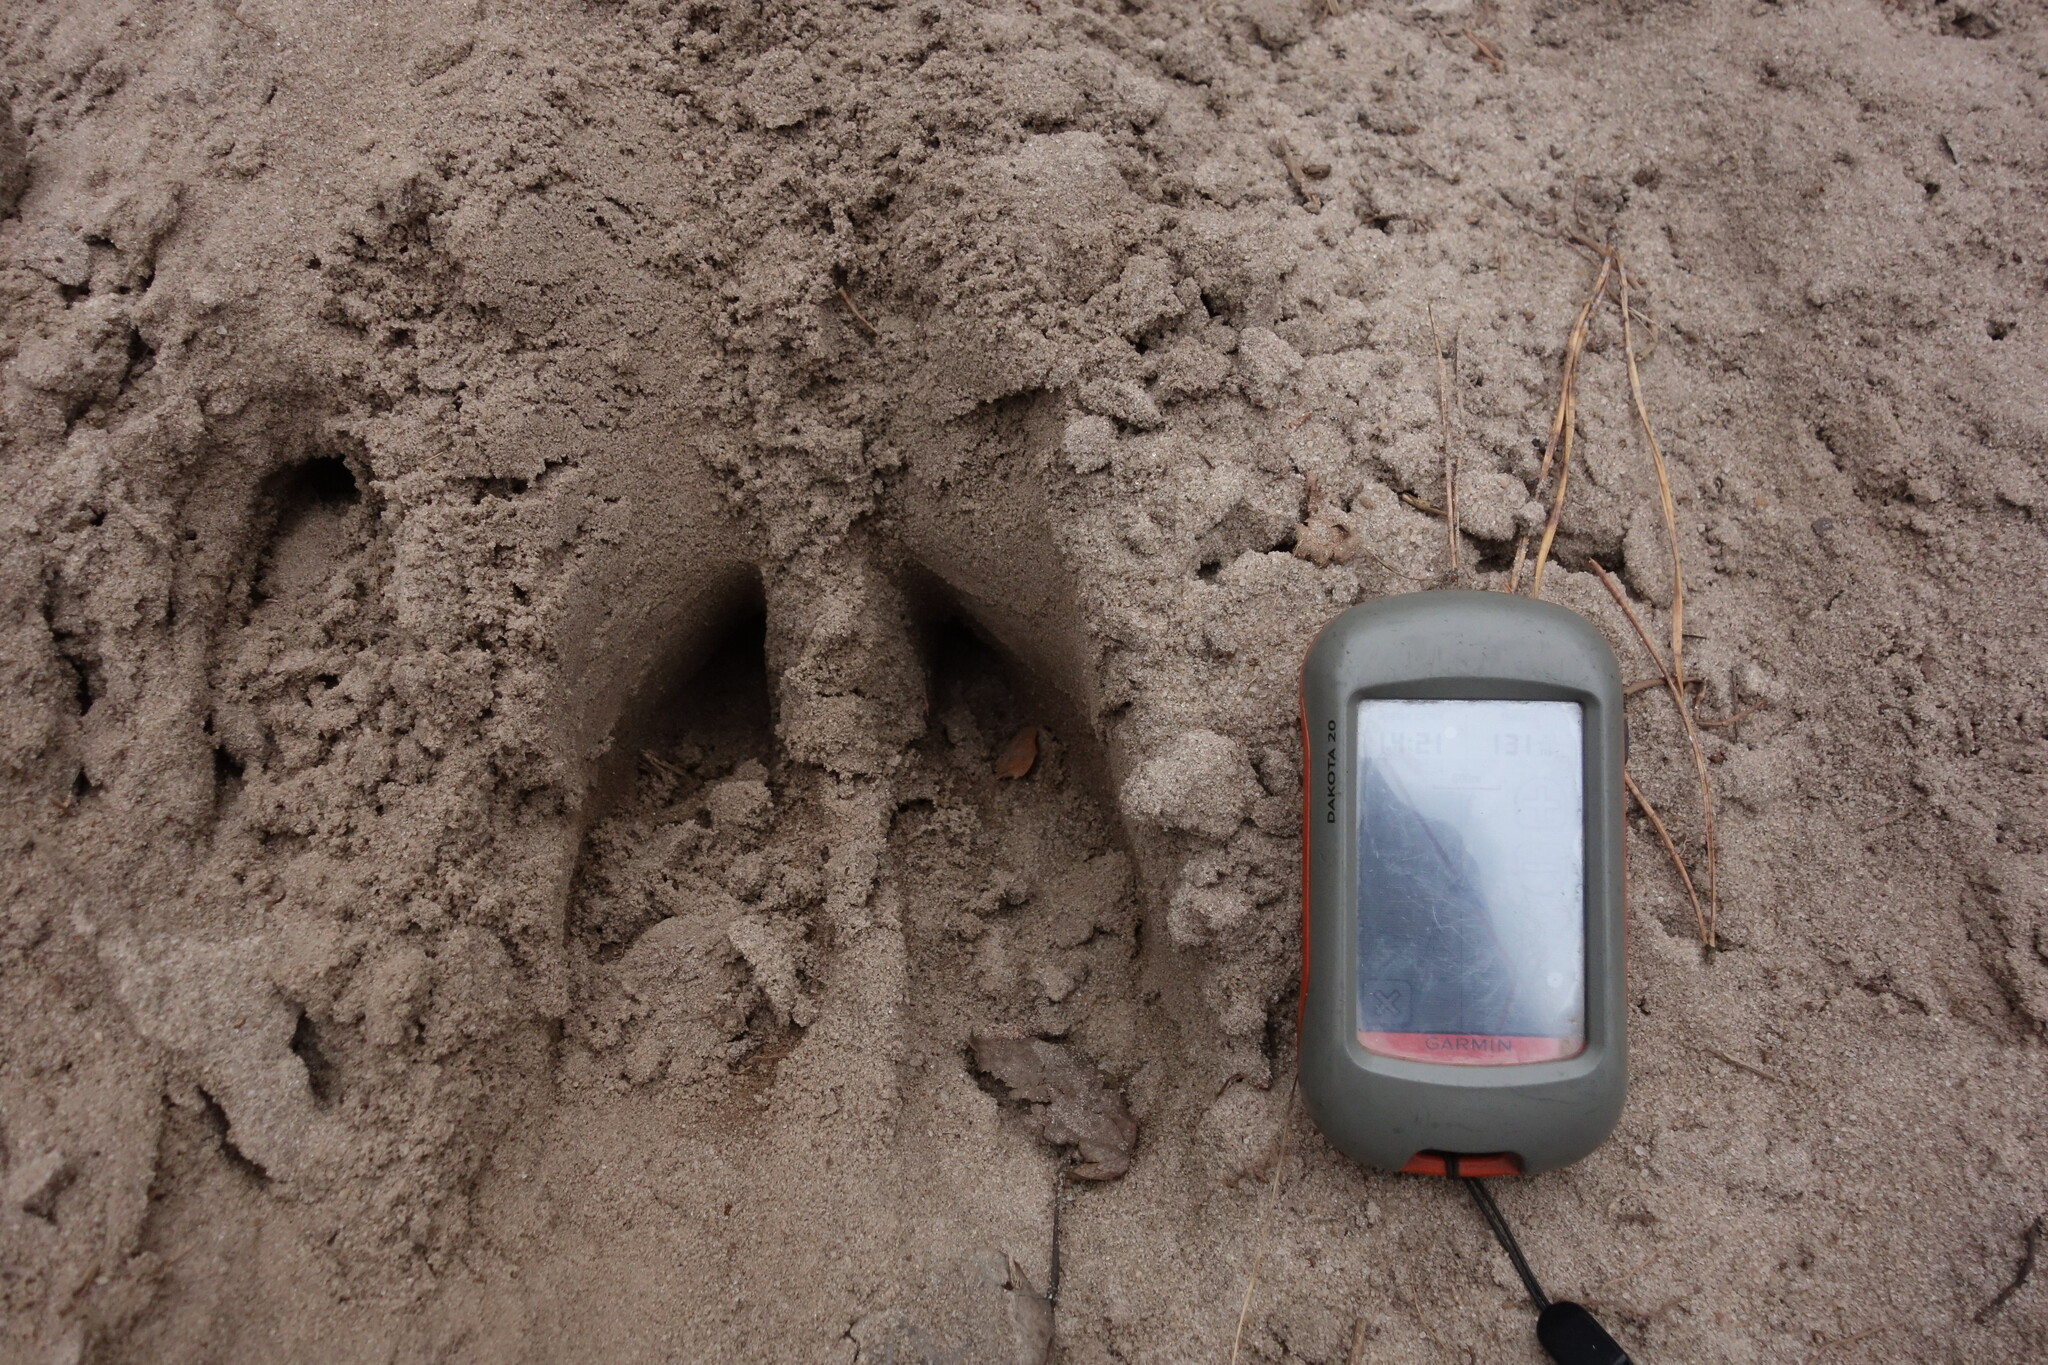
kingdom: Animalia
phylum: Chordata
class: Mammalia
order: Artiodactyla
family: Cervidae
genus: Alces
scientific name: Alces alces
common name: Moose
